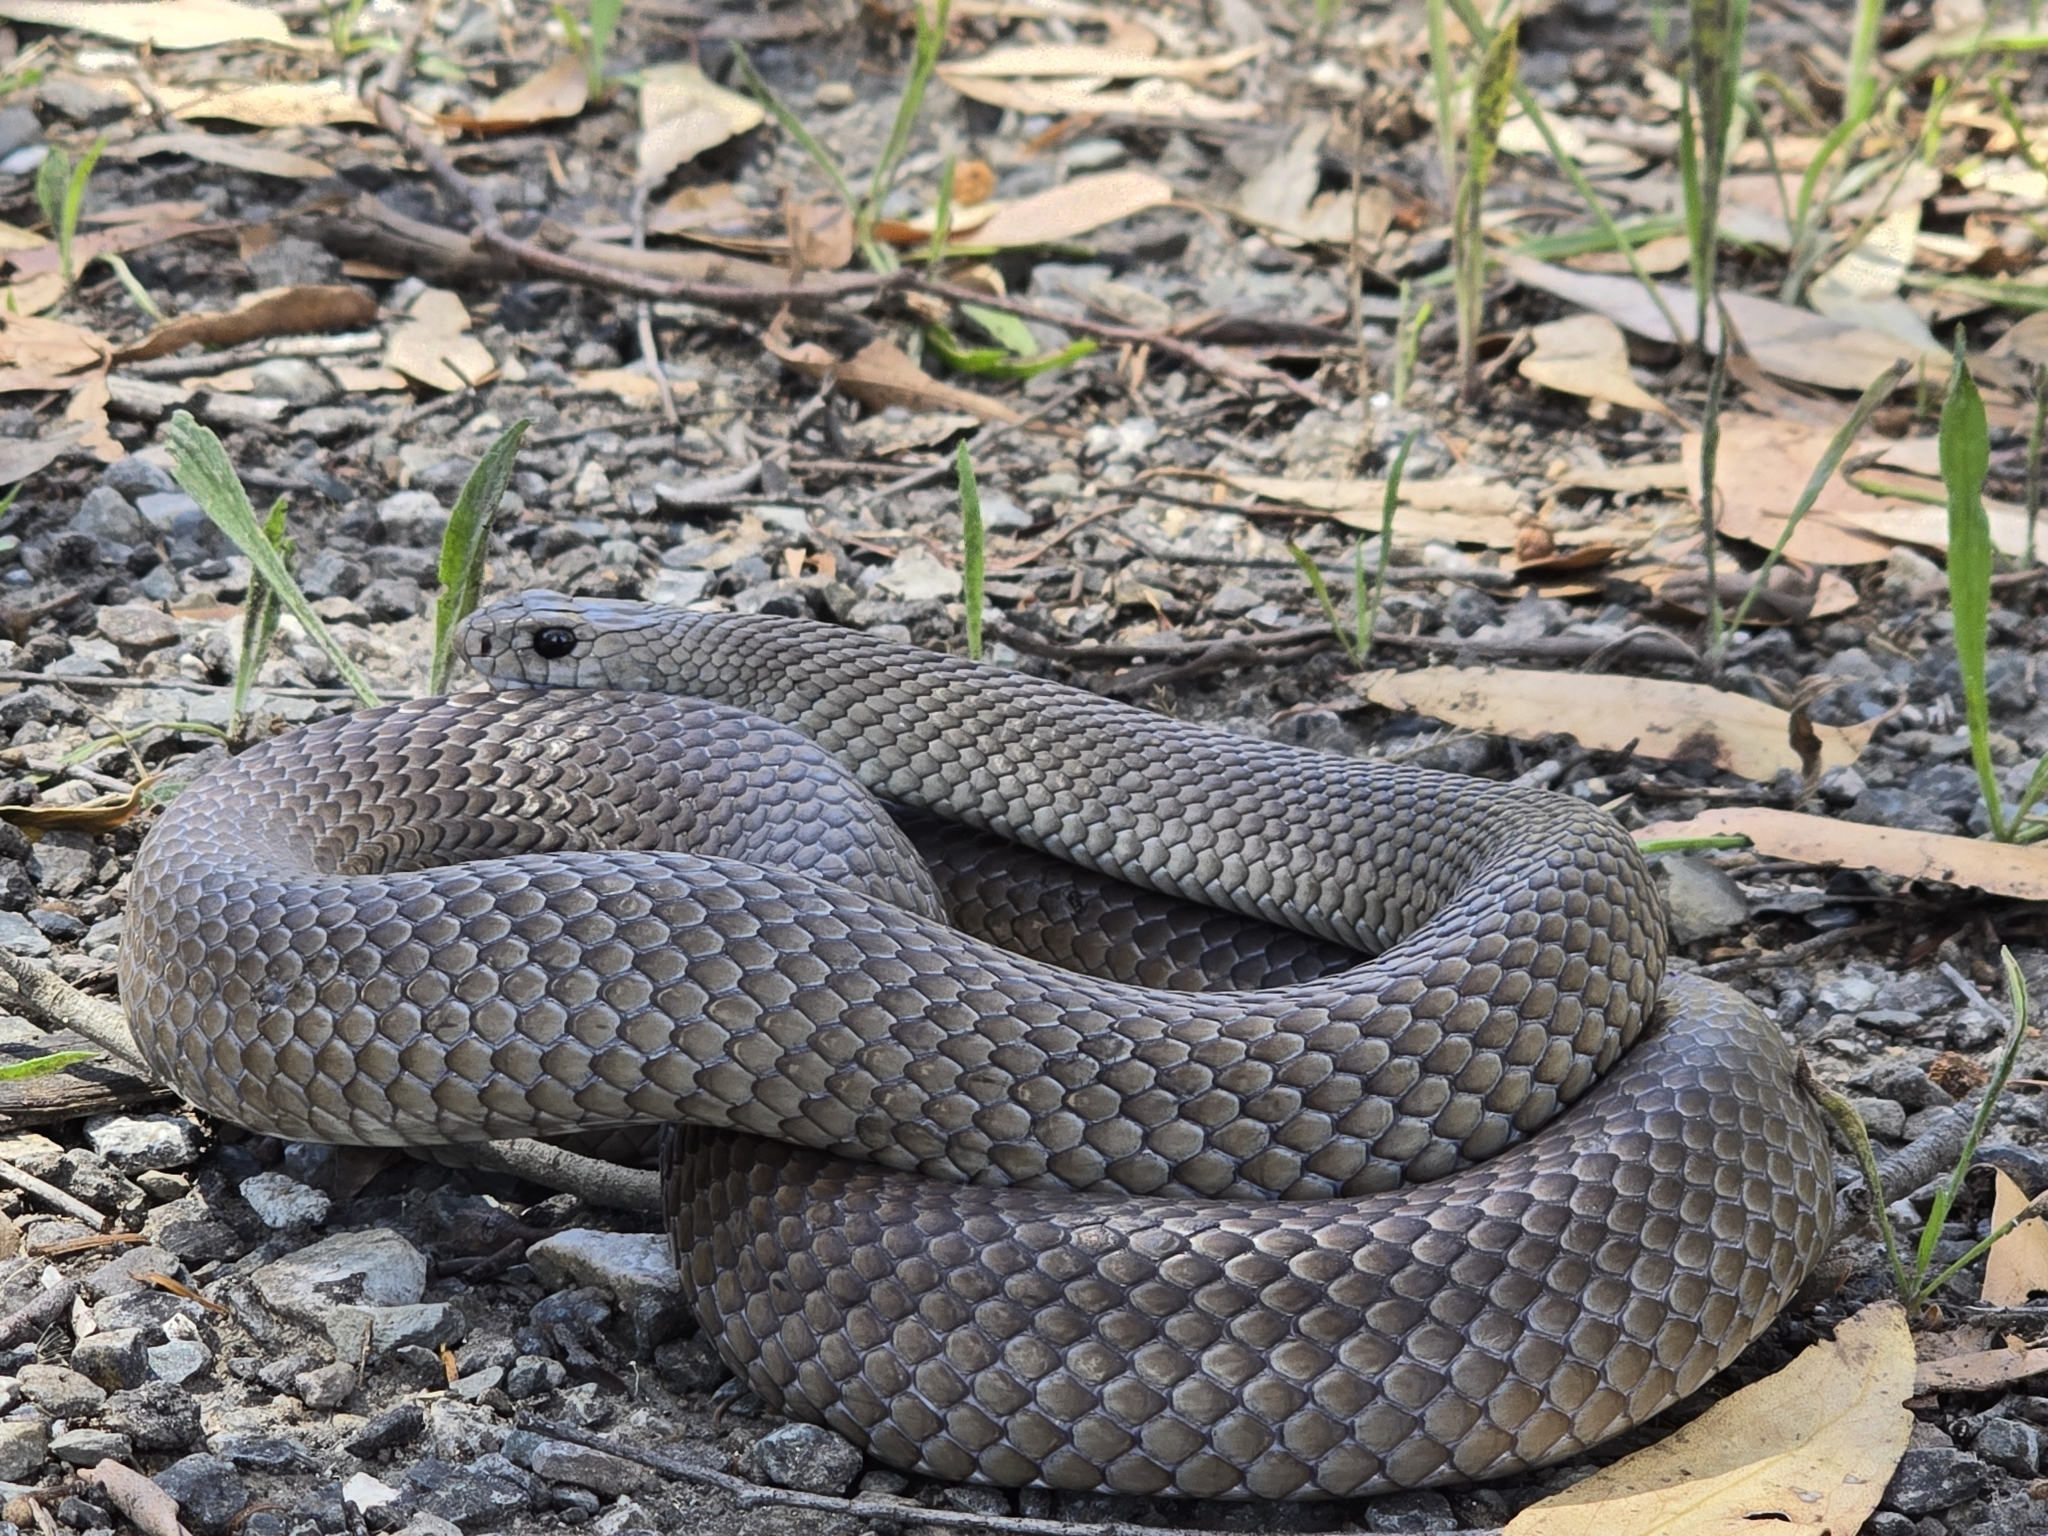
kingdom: Animalia
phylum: Chordata
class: Squamata
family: Elapidae
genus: Pseudonaja
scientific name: Pseudonaja textilis
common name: Eastern brown snake
